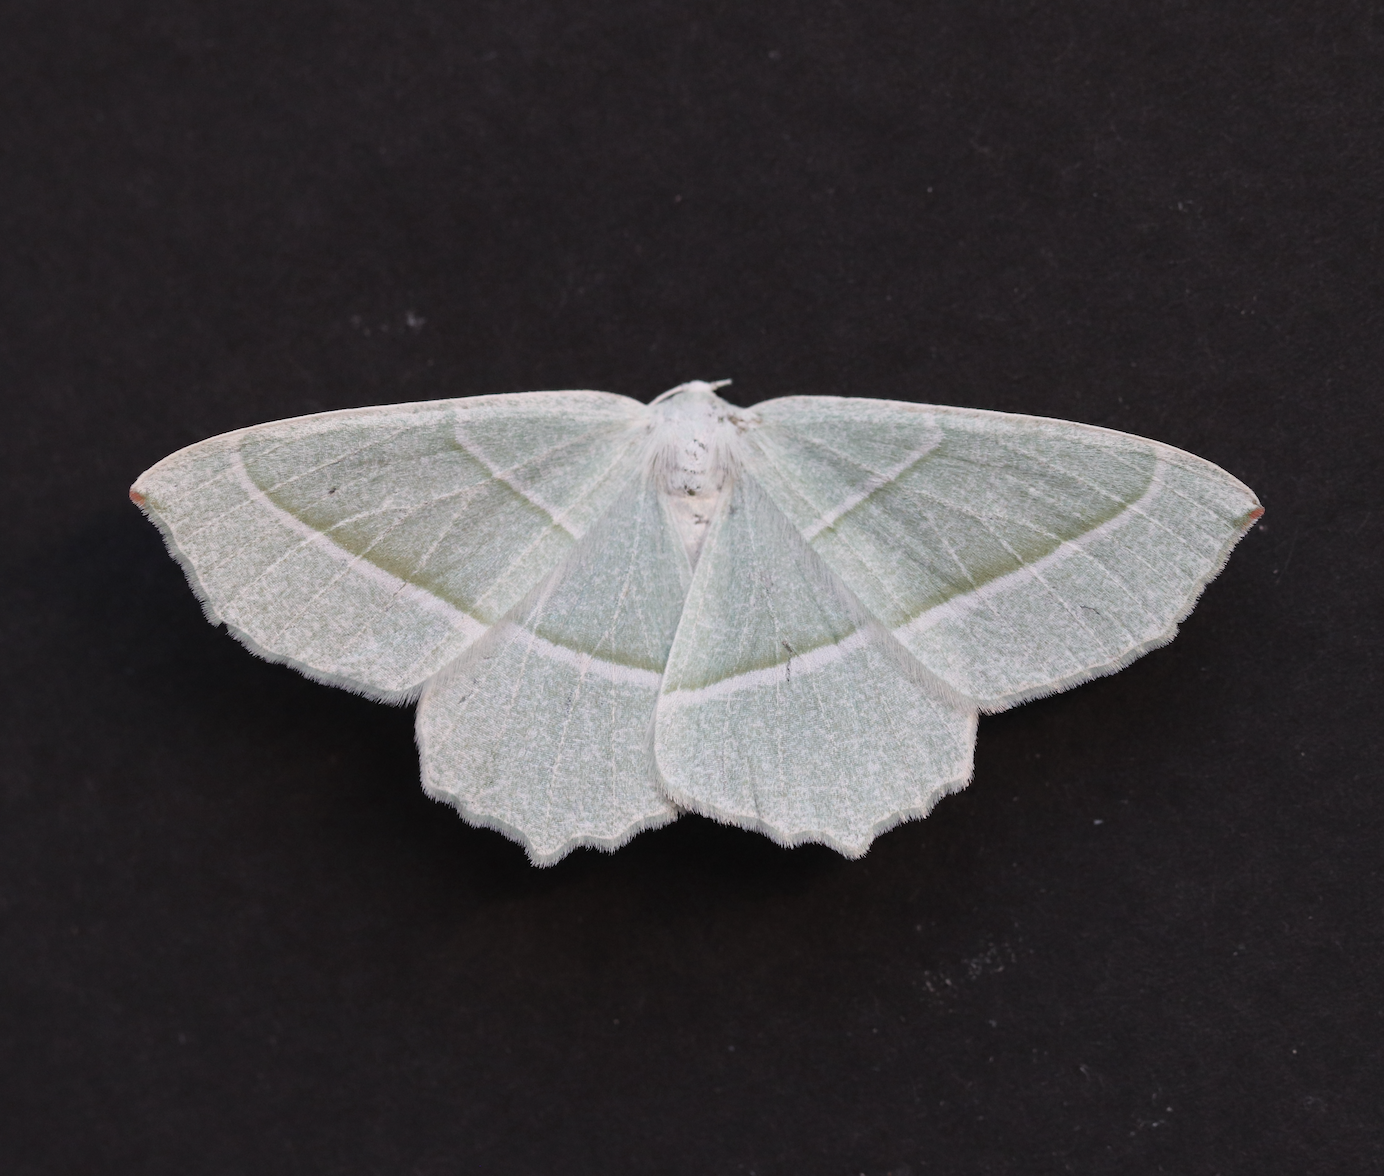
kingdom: Animalia
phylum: Arthropoda
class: Insecta
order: Lepidoptera
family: Geometridae
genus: Campaea
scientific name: Campaea margaritaria
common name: Light emerald
